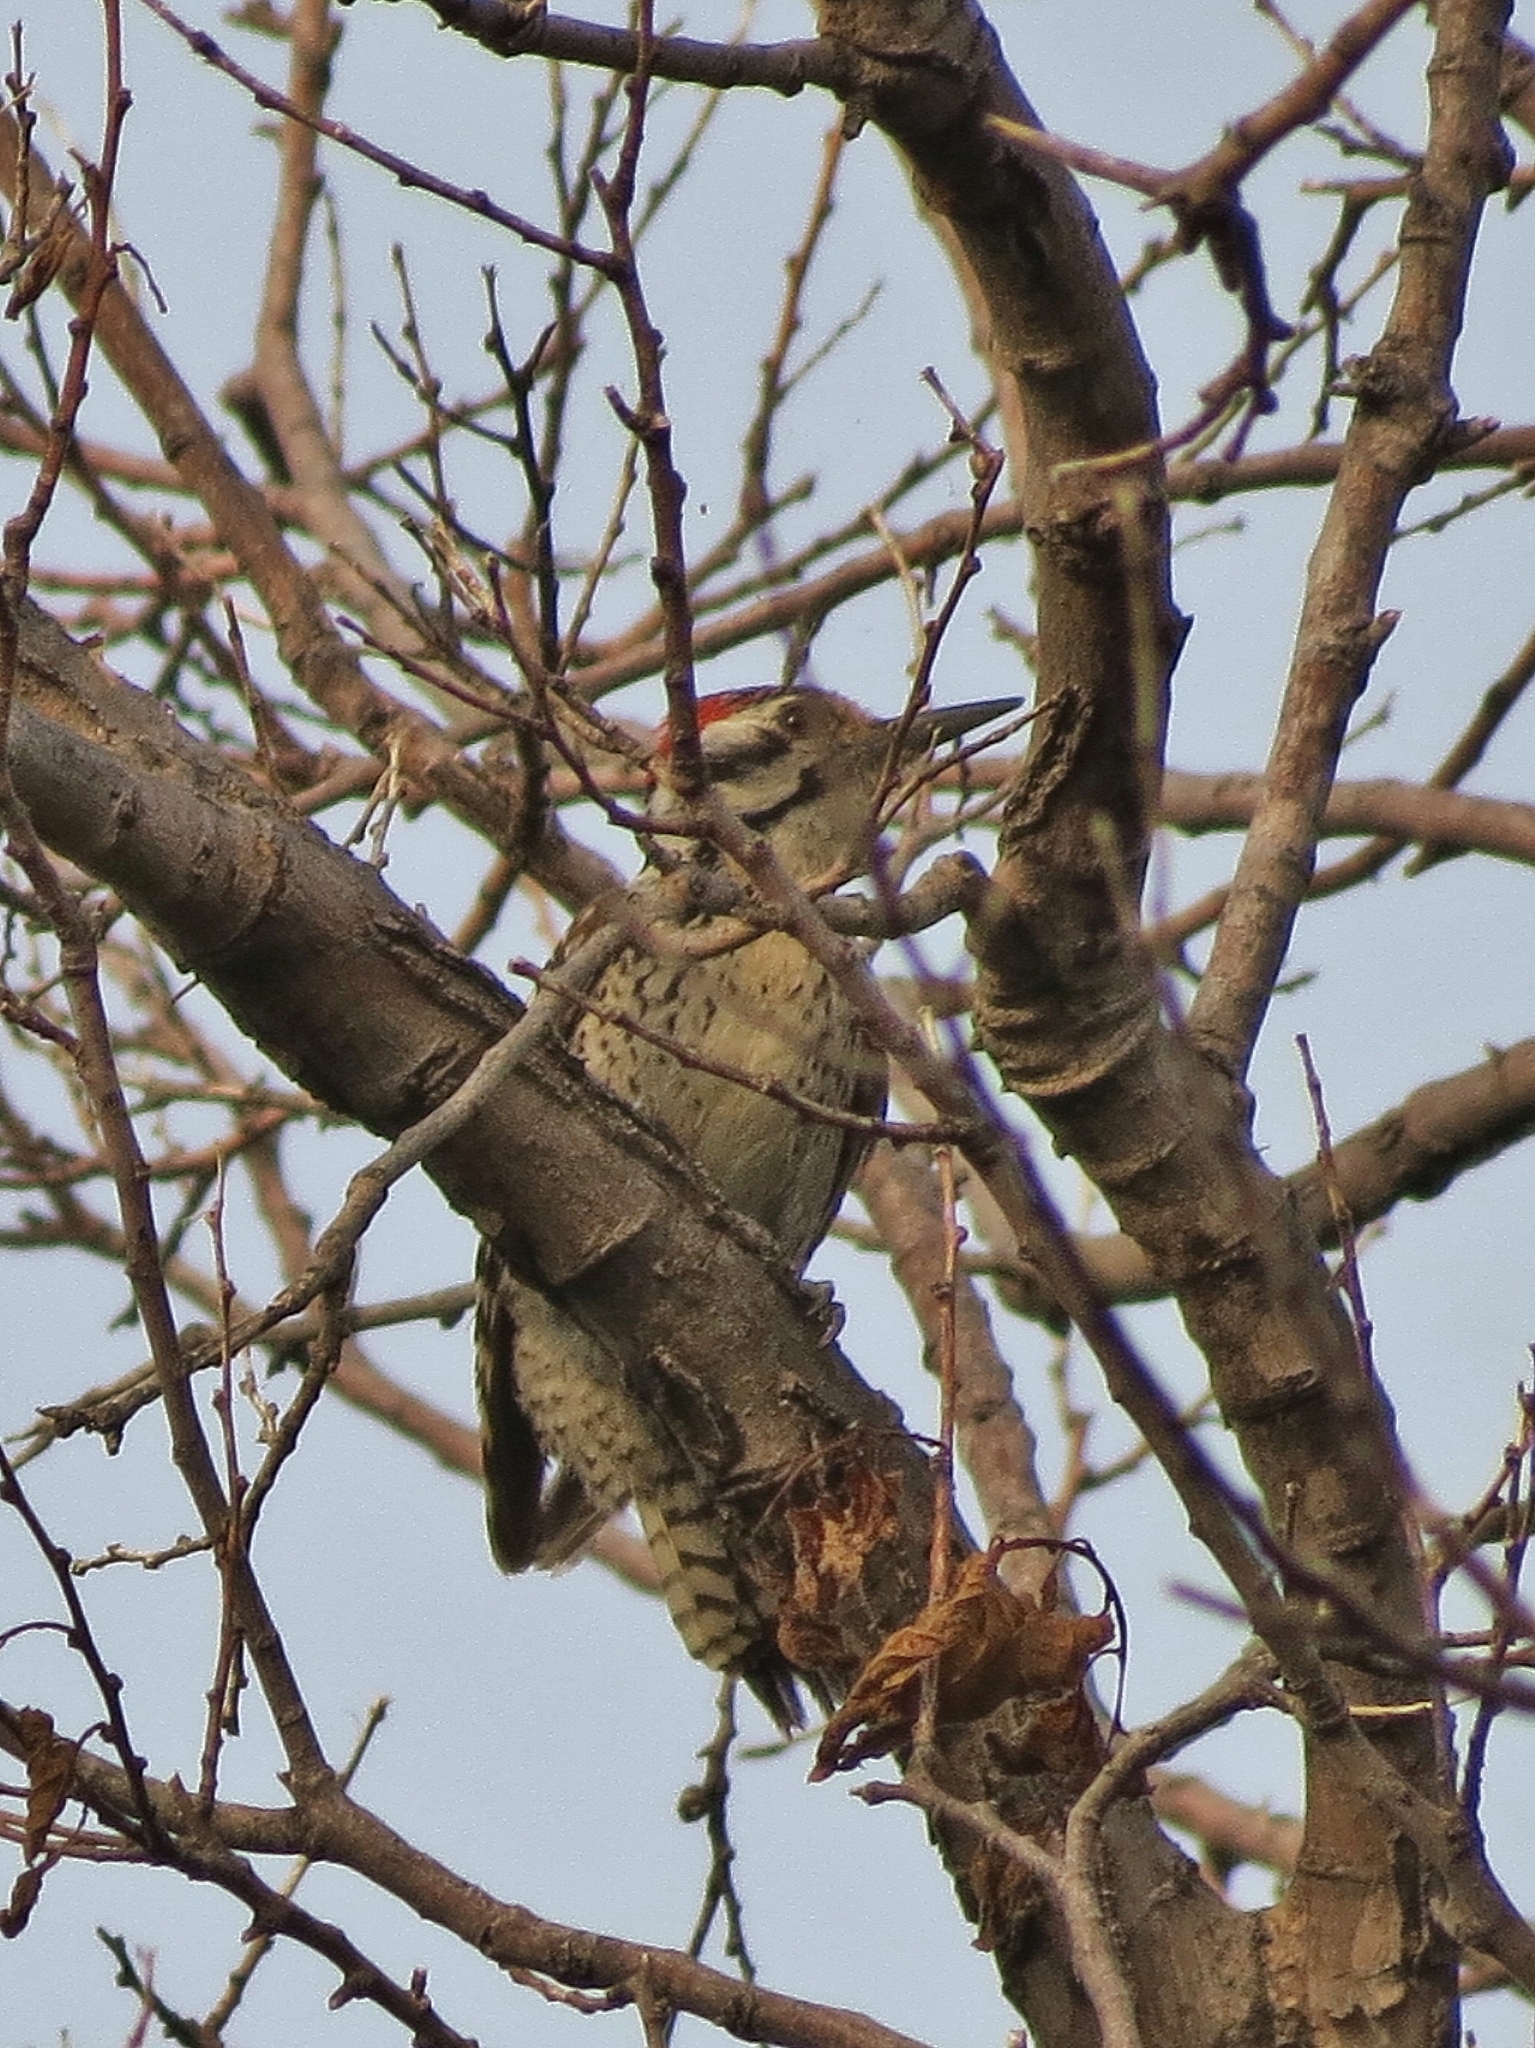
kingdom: Animalia
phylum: Chordata
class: Aves
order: Piciformes
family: Picidae
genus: Dryobates
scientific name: Dryobates scalaris
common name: Ladder-backed woodpecker
